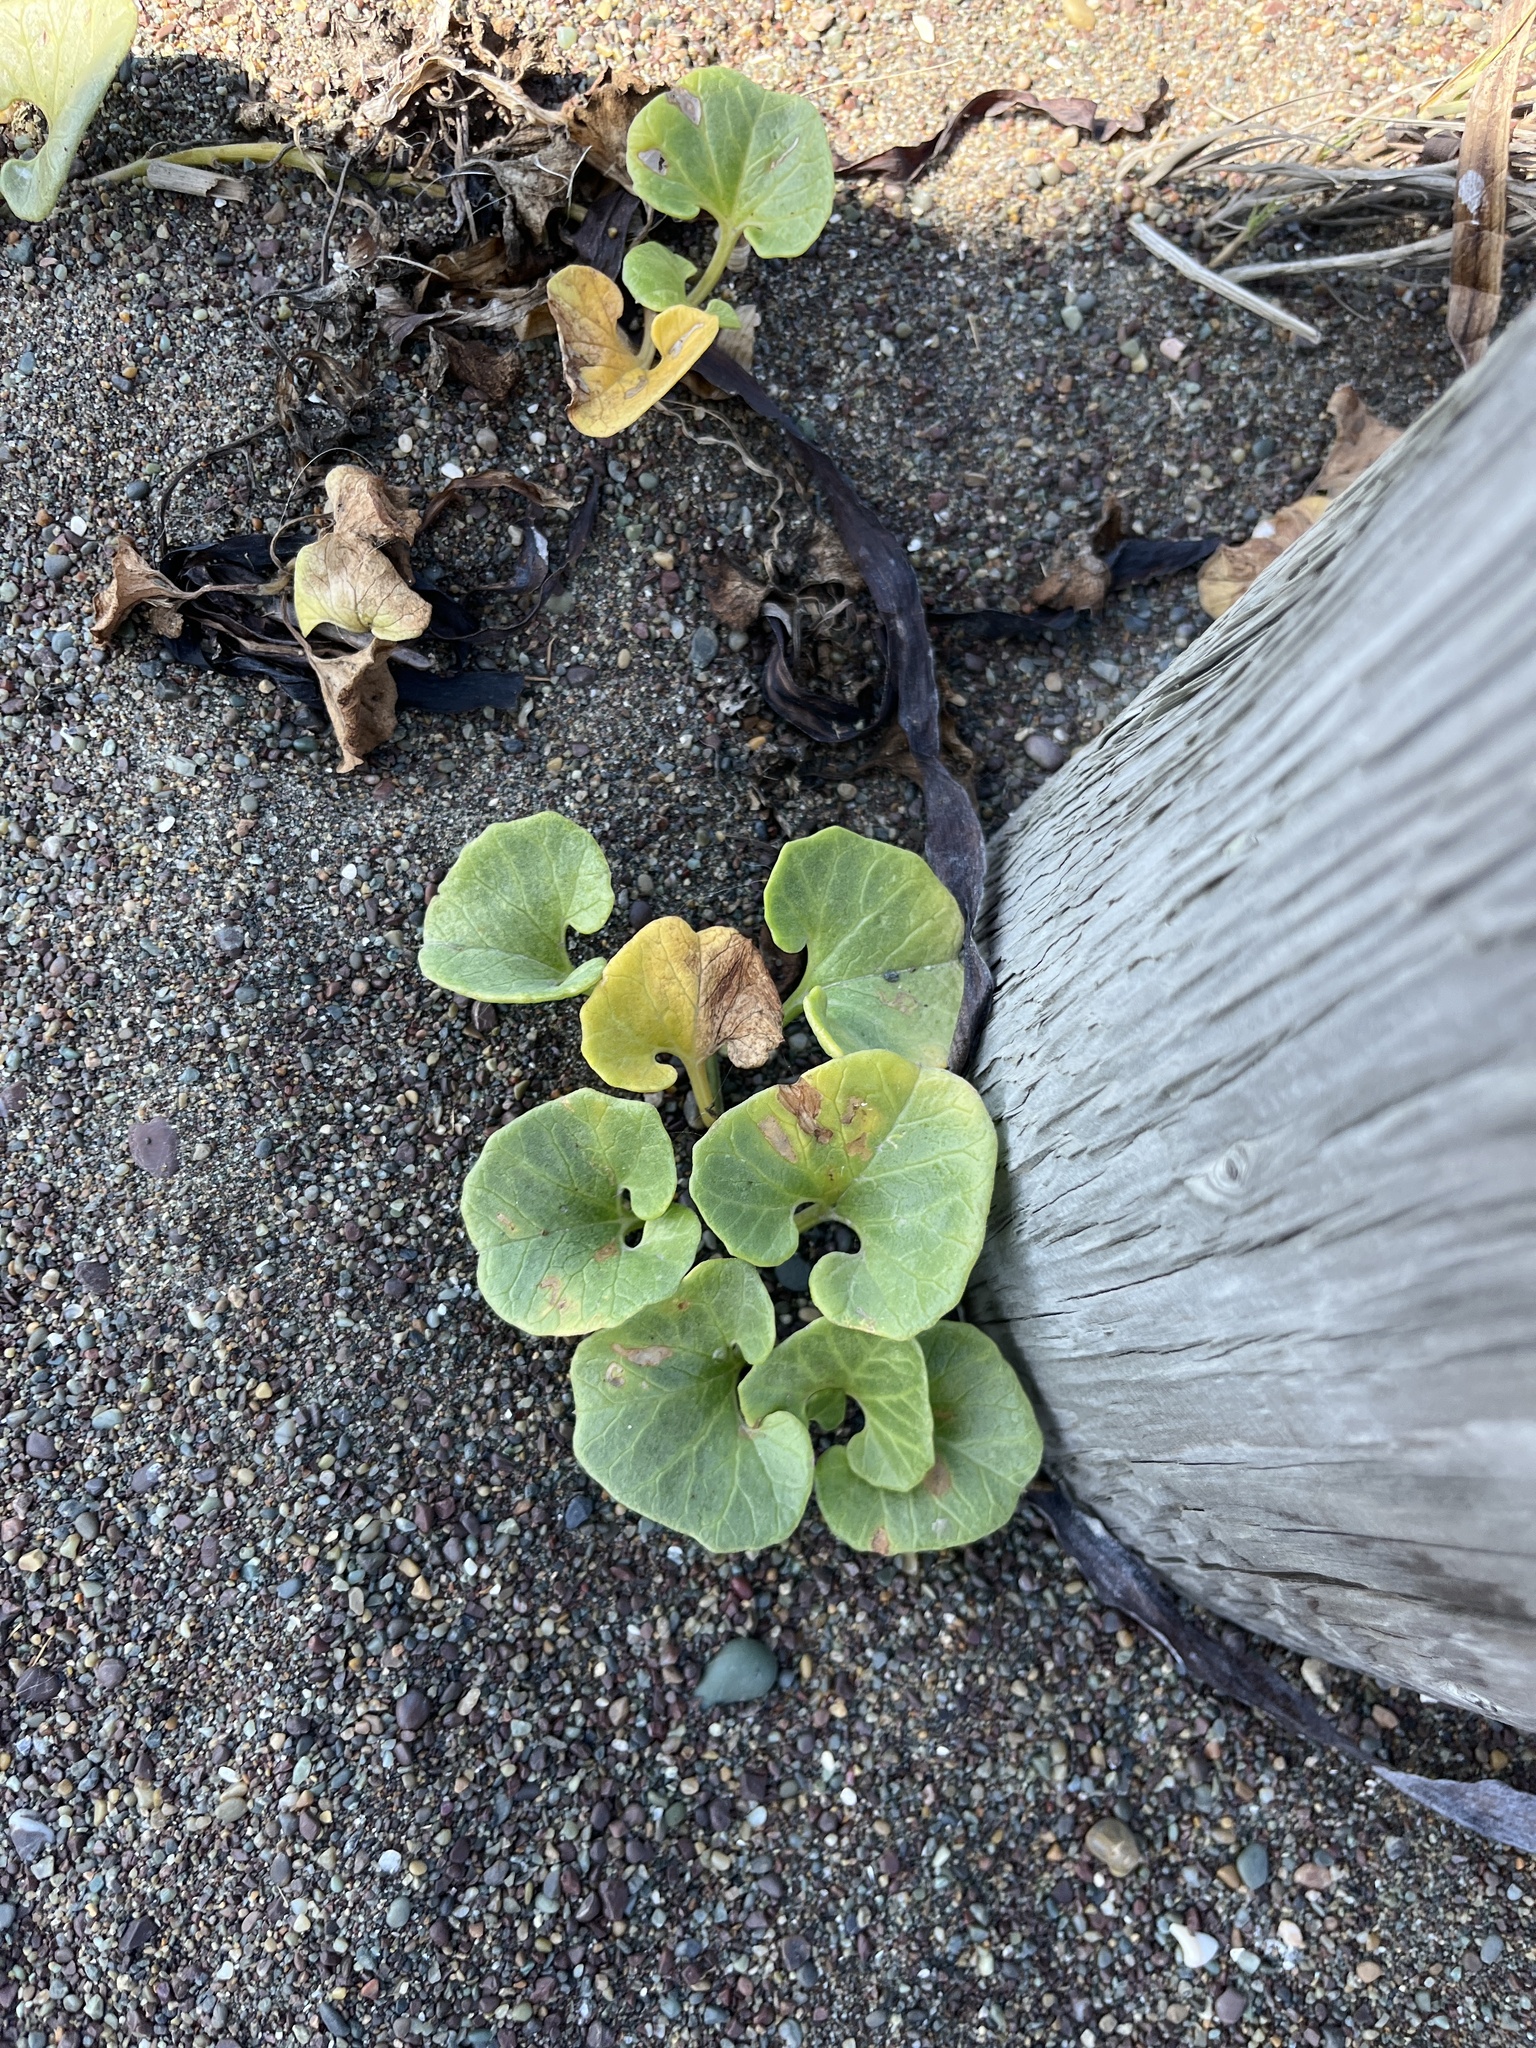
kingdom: Plantae
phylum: Tracheophyta
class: Magnoliopsida
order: Solanales
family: Convolvulaceae
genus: Calystegia
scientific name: Calystegia soldanella
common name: Sea bindweed
